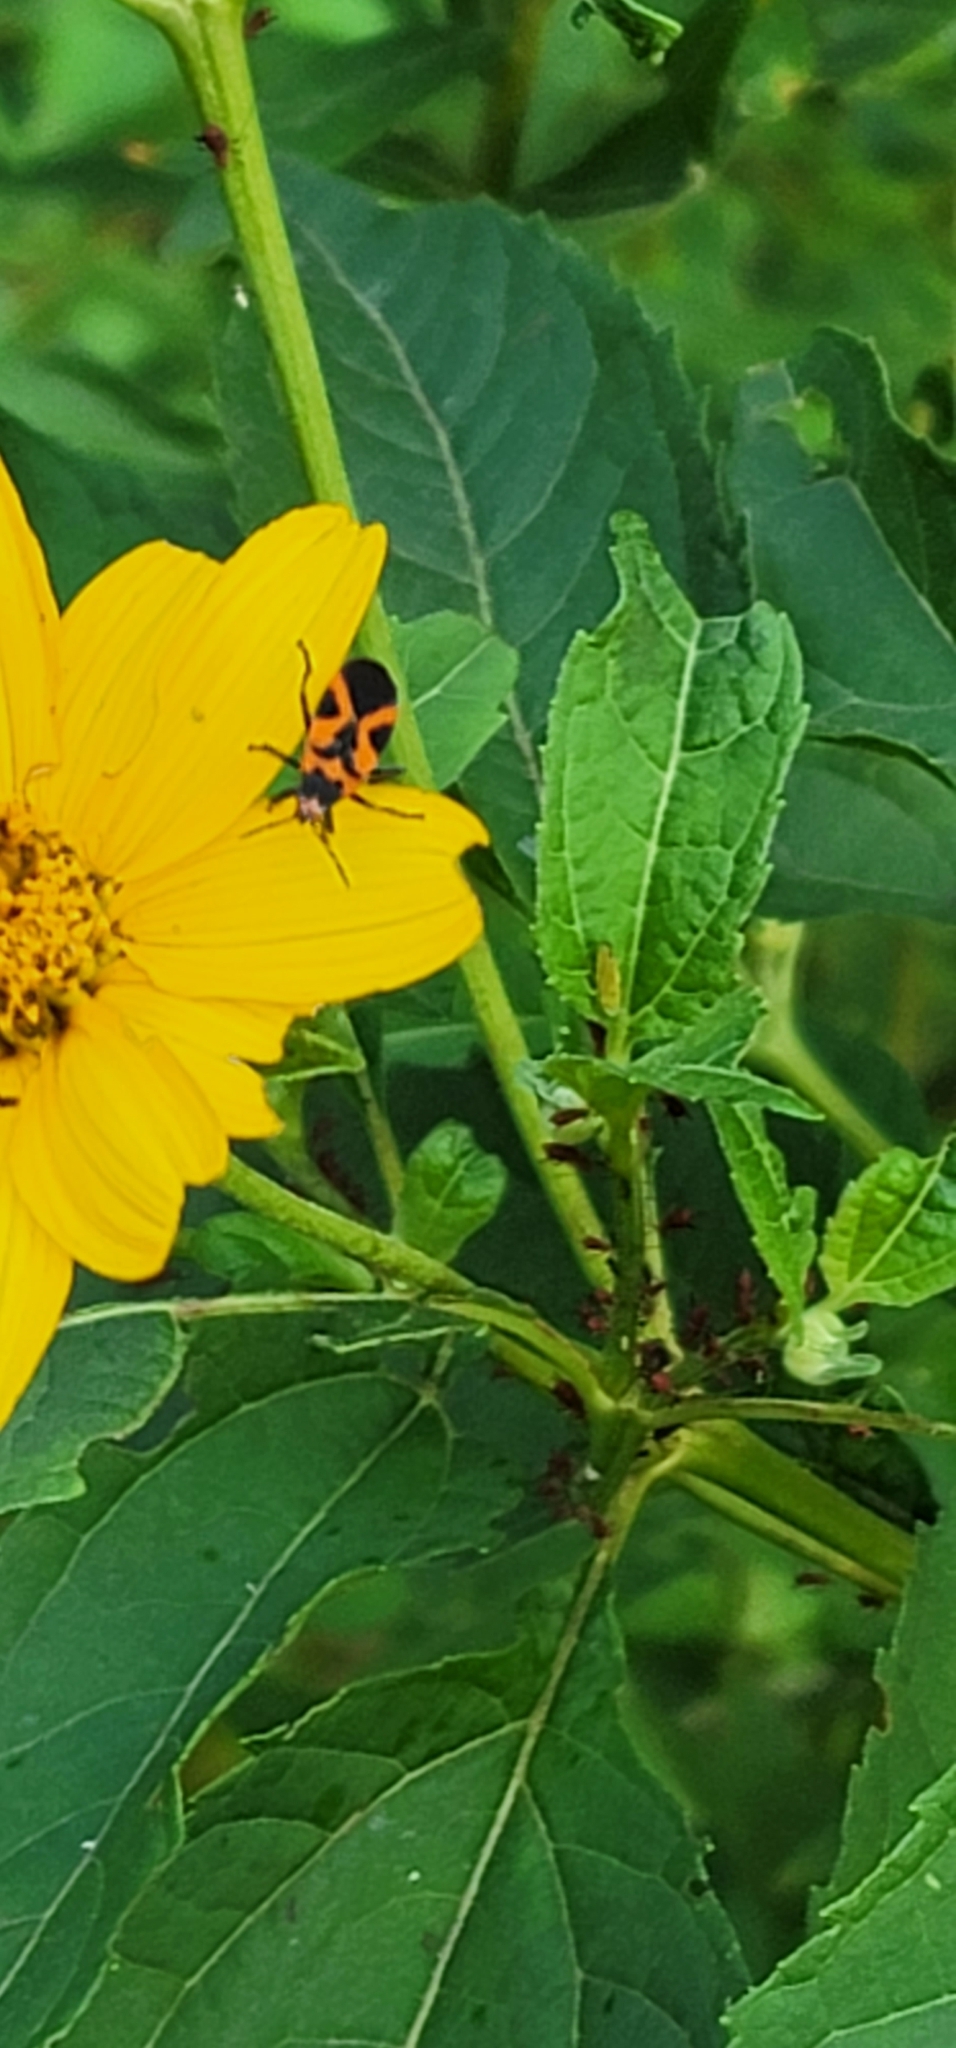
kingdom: Animalia
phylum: Arthropoda
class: Insecta
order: Hemiptera
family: Lygaeidae
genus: Lygaeus
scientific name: Lygaeus turcicus
